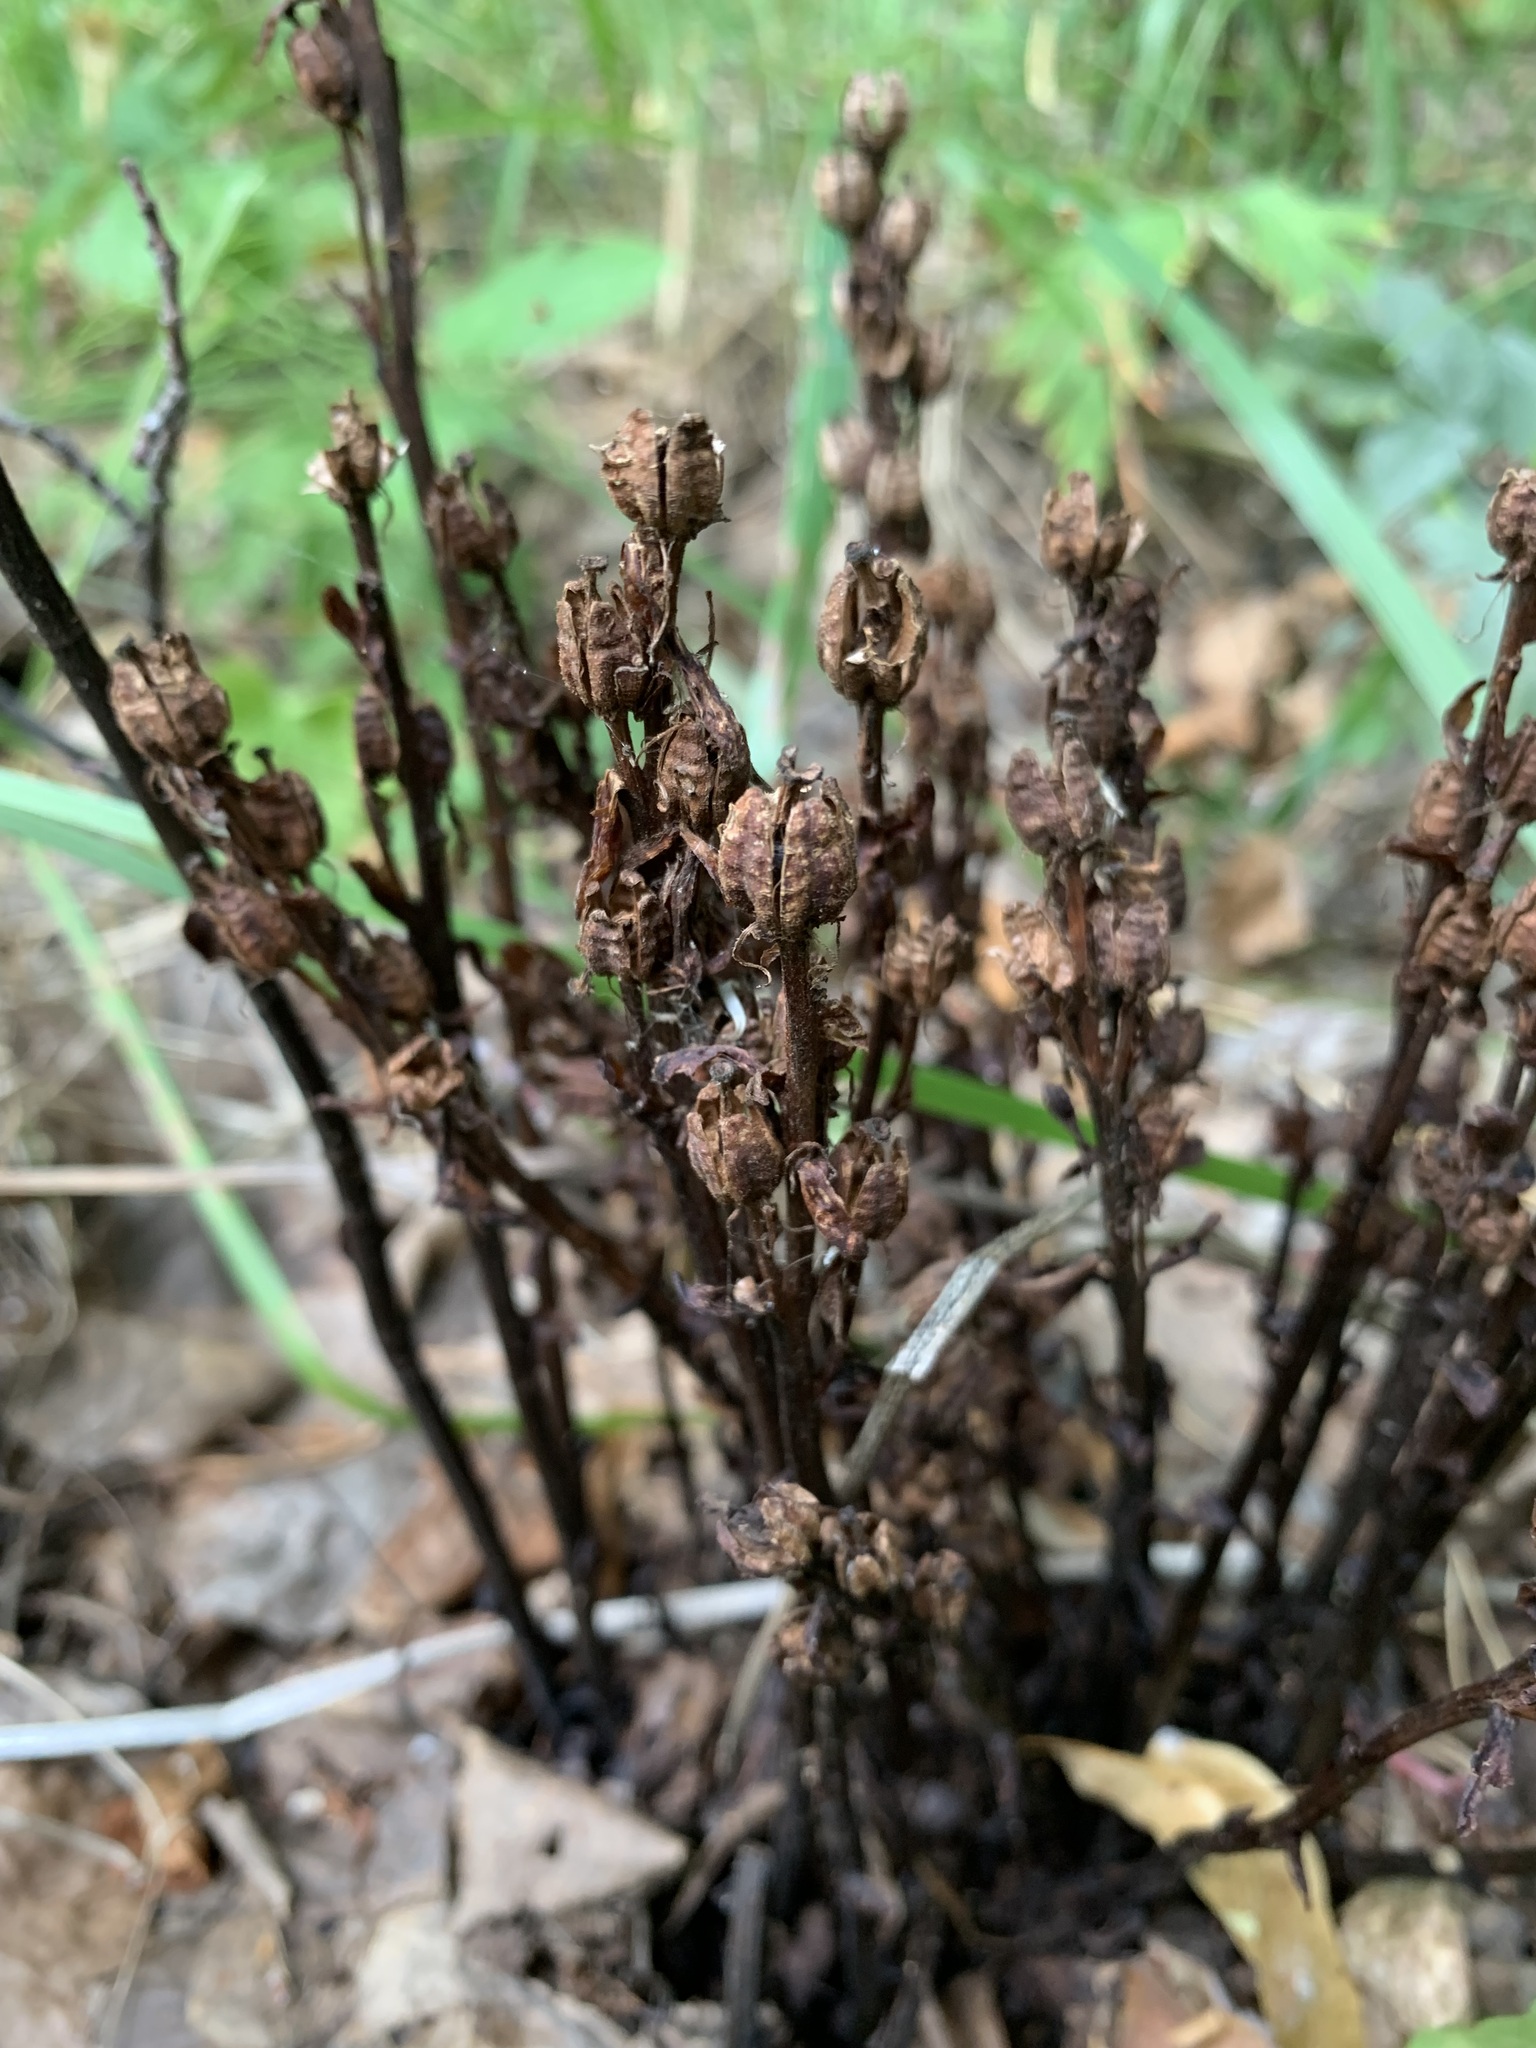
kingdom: Plantae
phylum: Tracheophyta
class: Magnoliopsida
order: Ericales
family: Ericaceae
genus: Hypopitys
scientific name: Hypopitys monotropa
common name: Yellow bird's-nest
